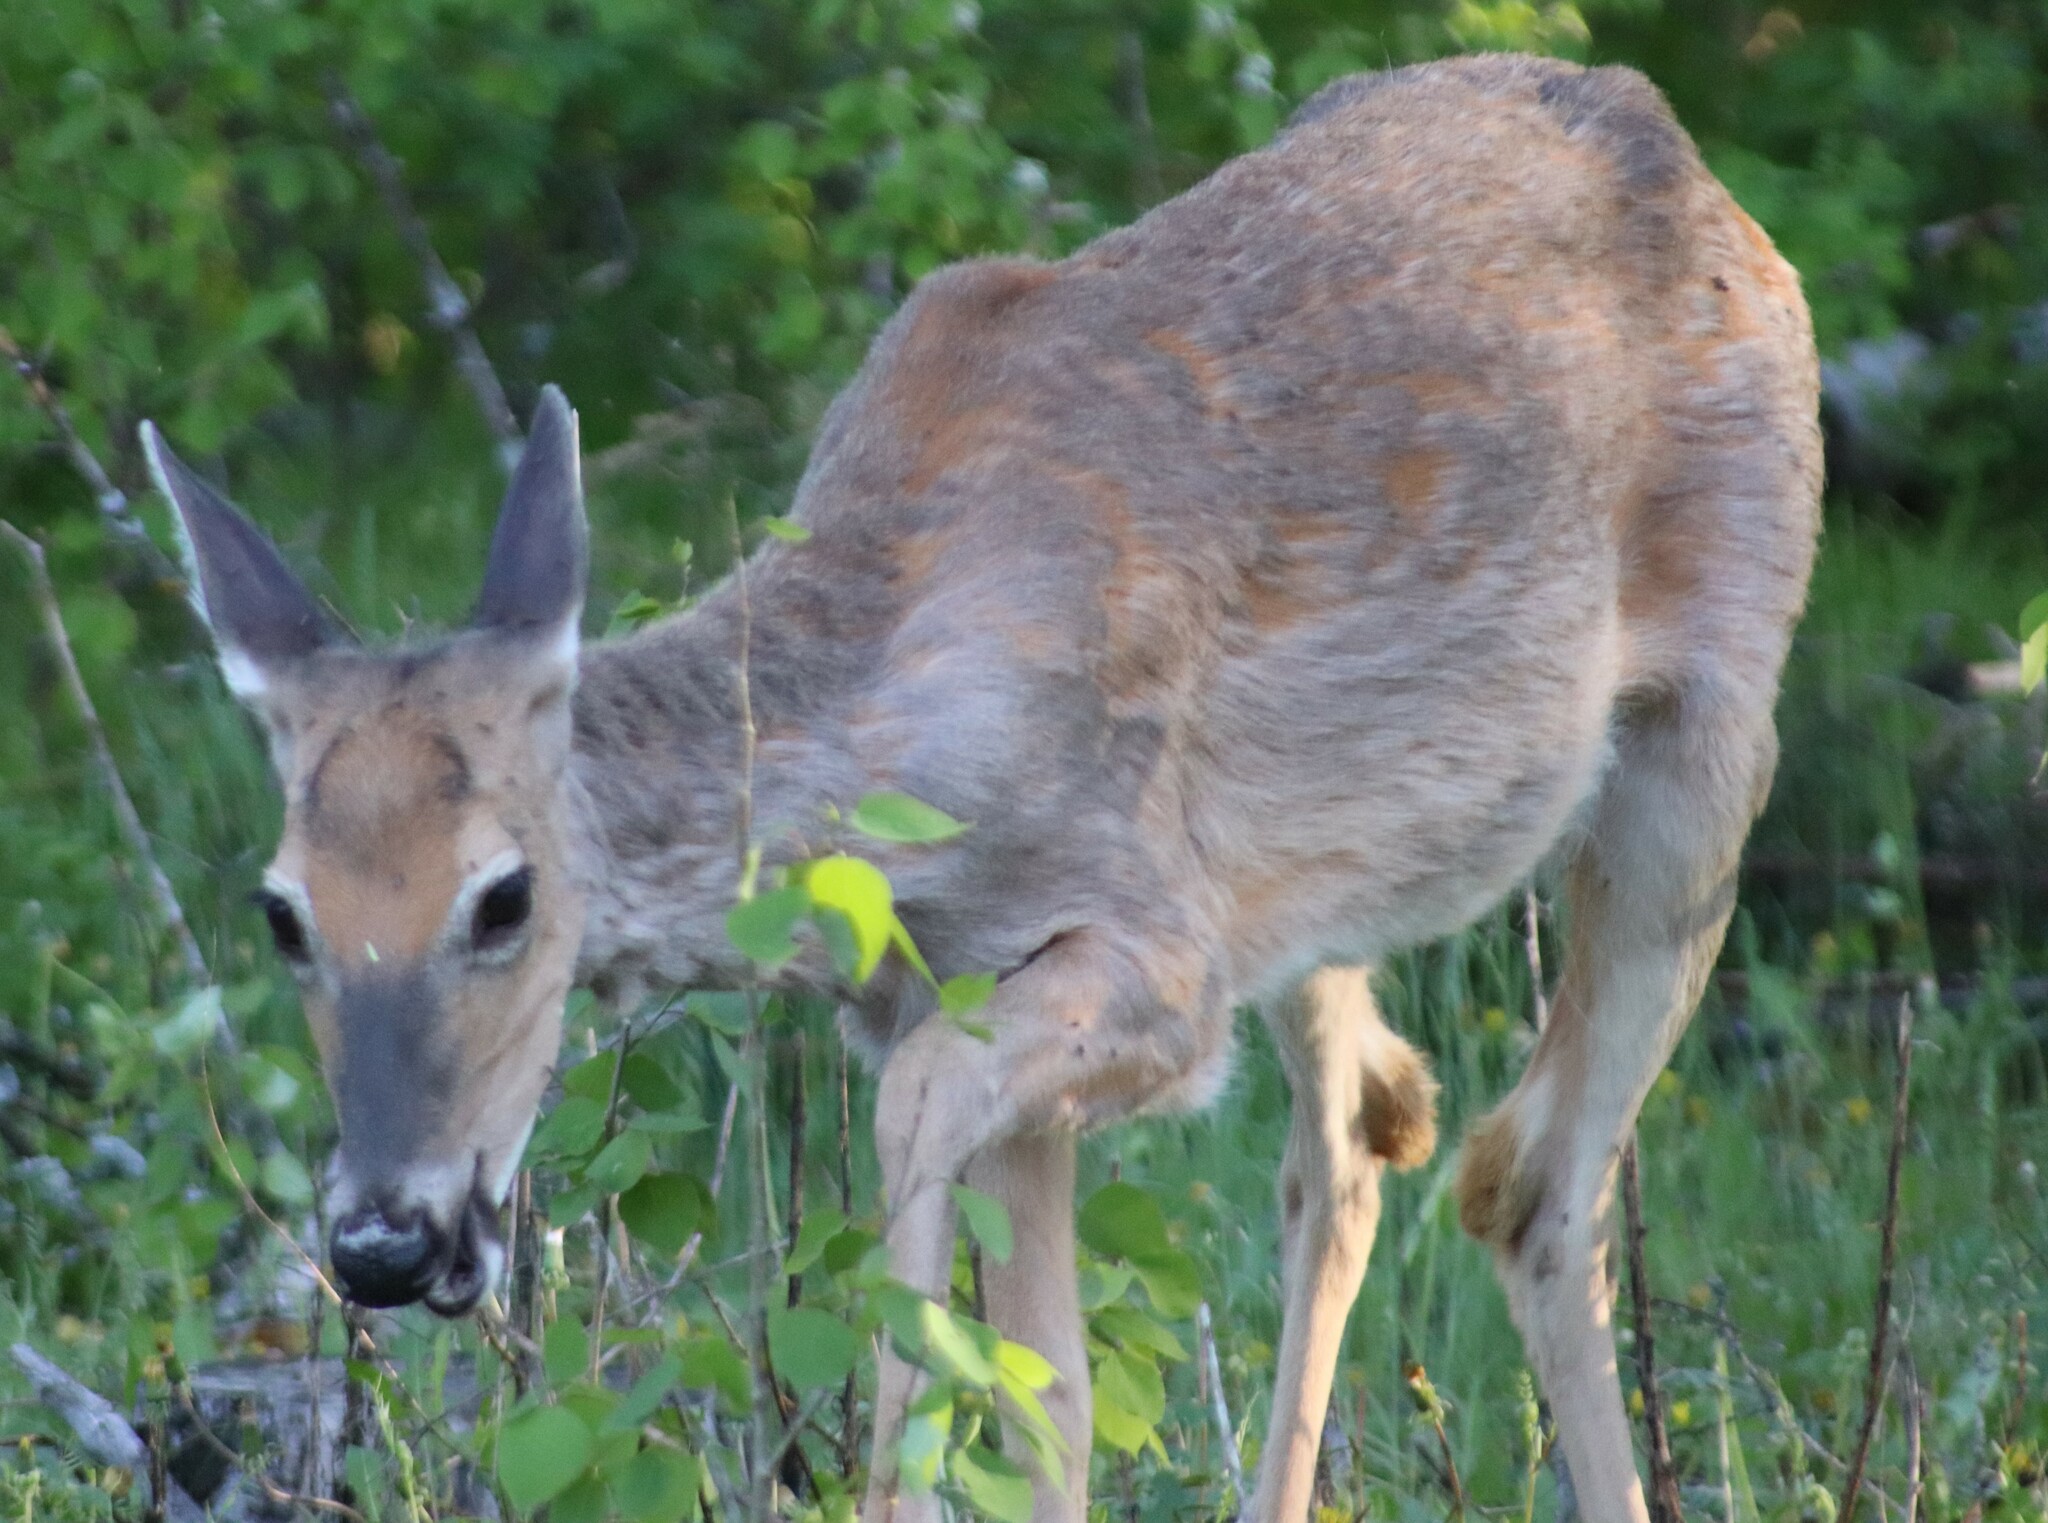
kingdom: Animalia
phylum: Chordata
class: Mammalia
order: Artiodactyla
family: Cervidae
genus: Odocoileus
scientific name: Odocoileus virginianus
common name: White-tailed deer
